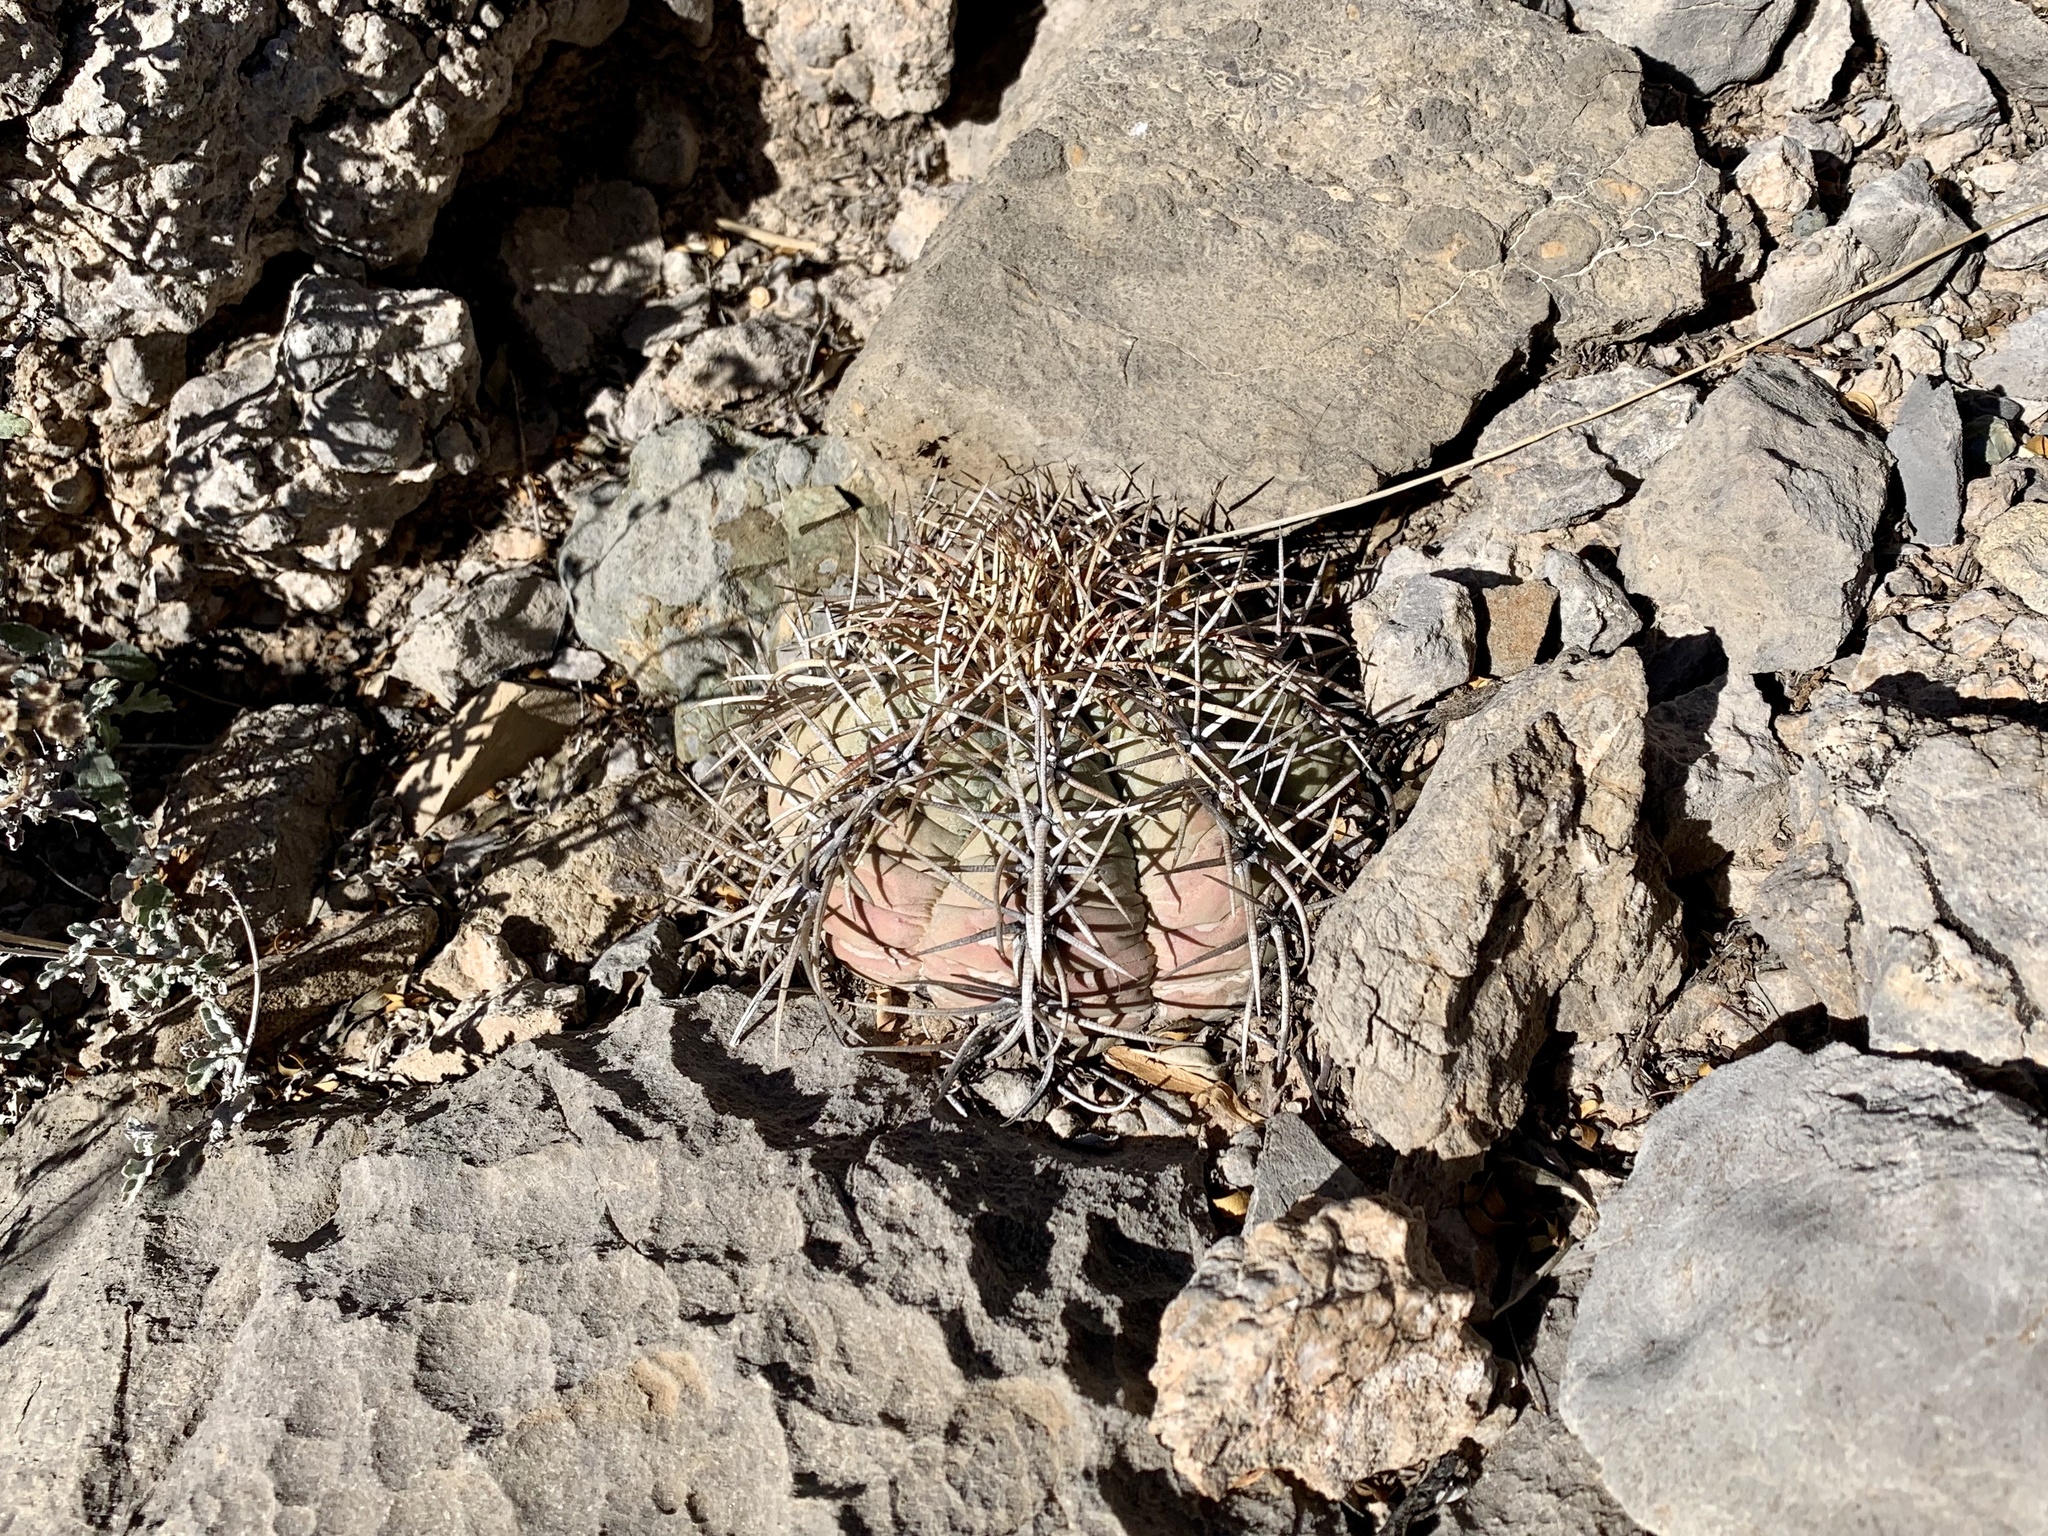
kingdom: Plantae
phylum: Tracheophyta
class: Magnoliopsida
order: Caryophyllales
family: Cactaceae
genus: Echinocactus
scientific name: Echinocactus horizonthalonius
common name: Devilshead
